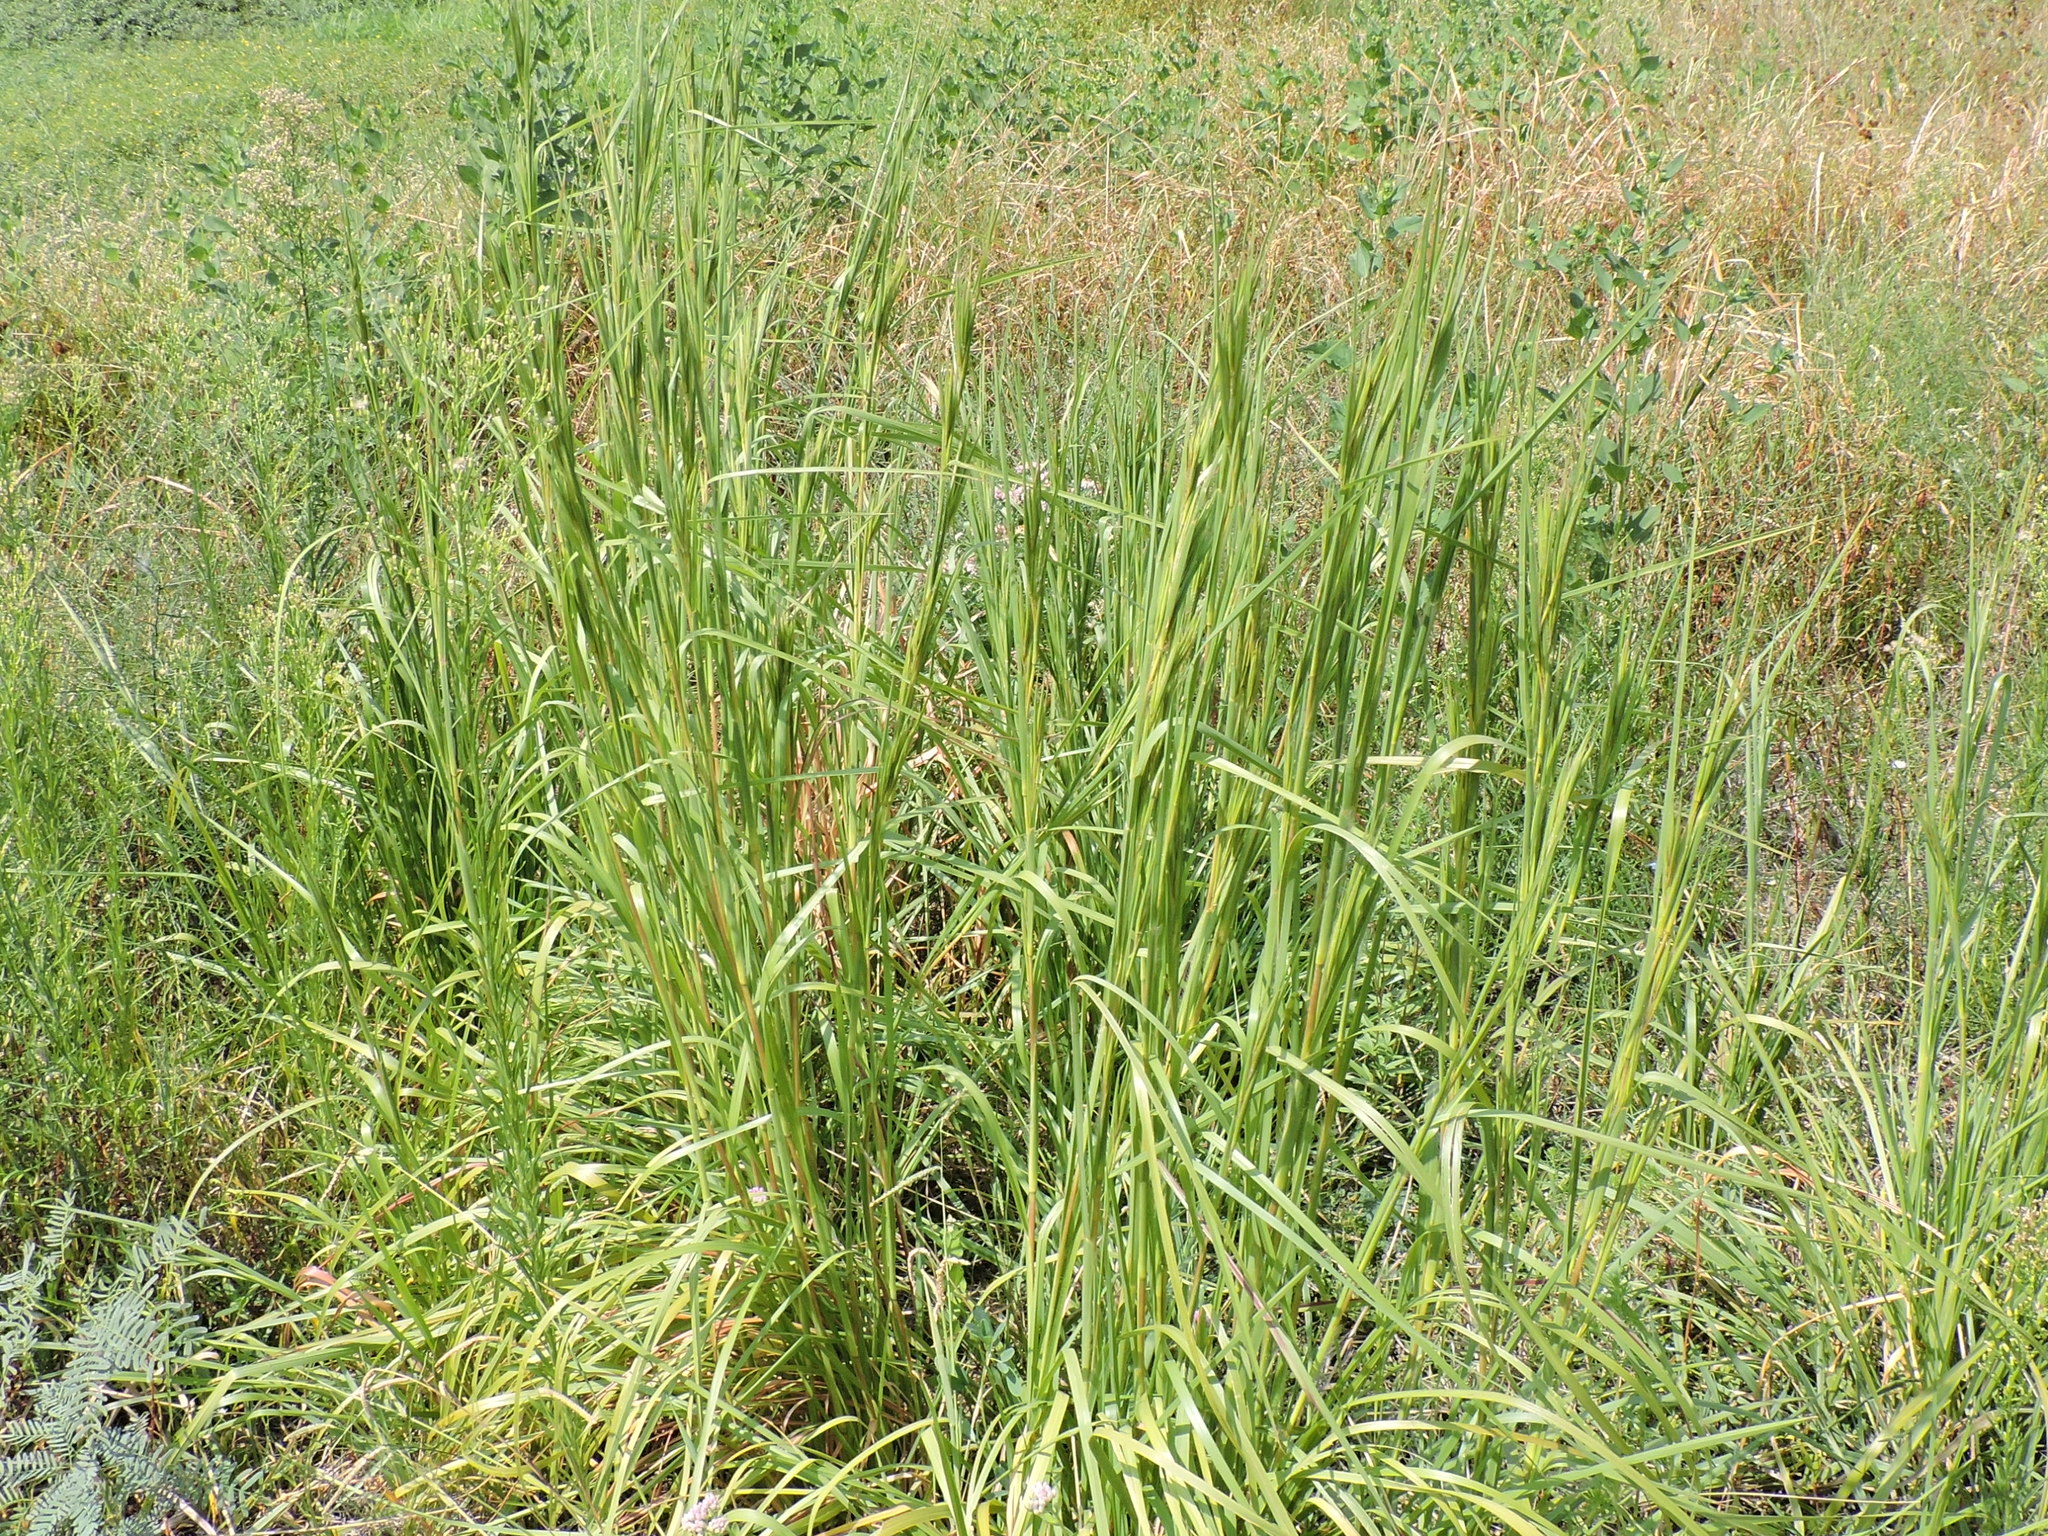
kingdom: Plantae
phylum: Tracheophyta
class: Liliopsida
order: Poales
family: Poaceae
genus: Andropogon
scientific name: Andropogon tenuispatheus
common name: Bushy bluestem
